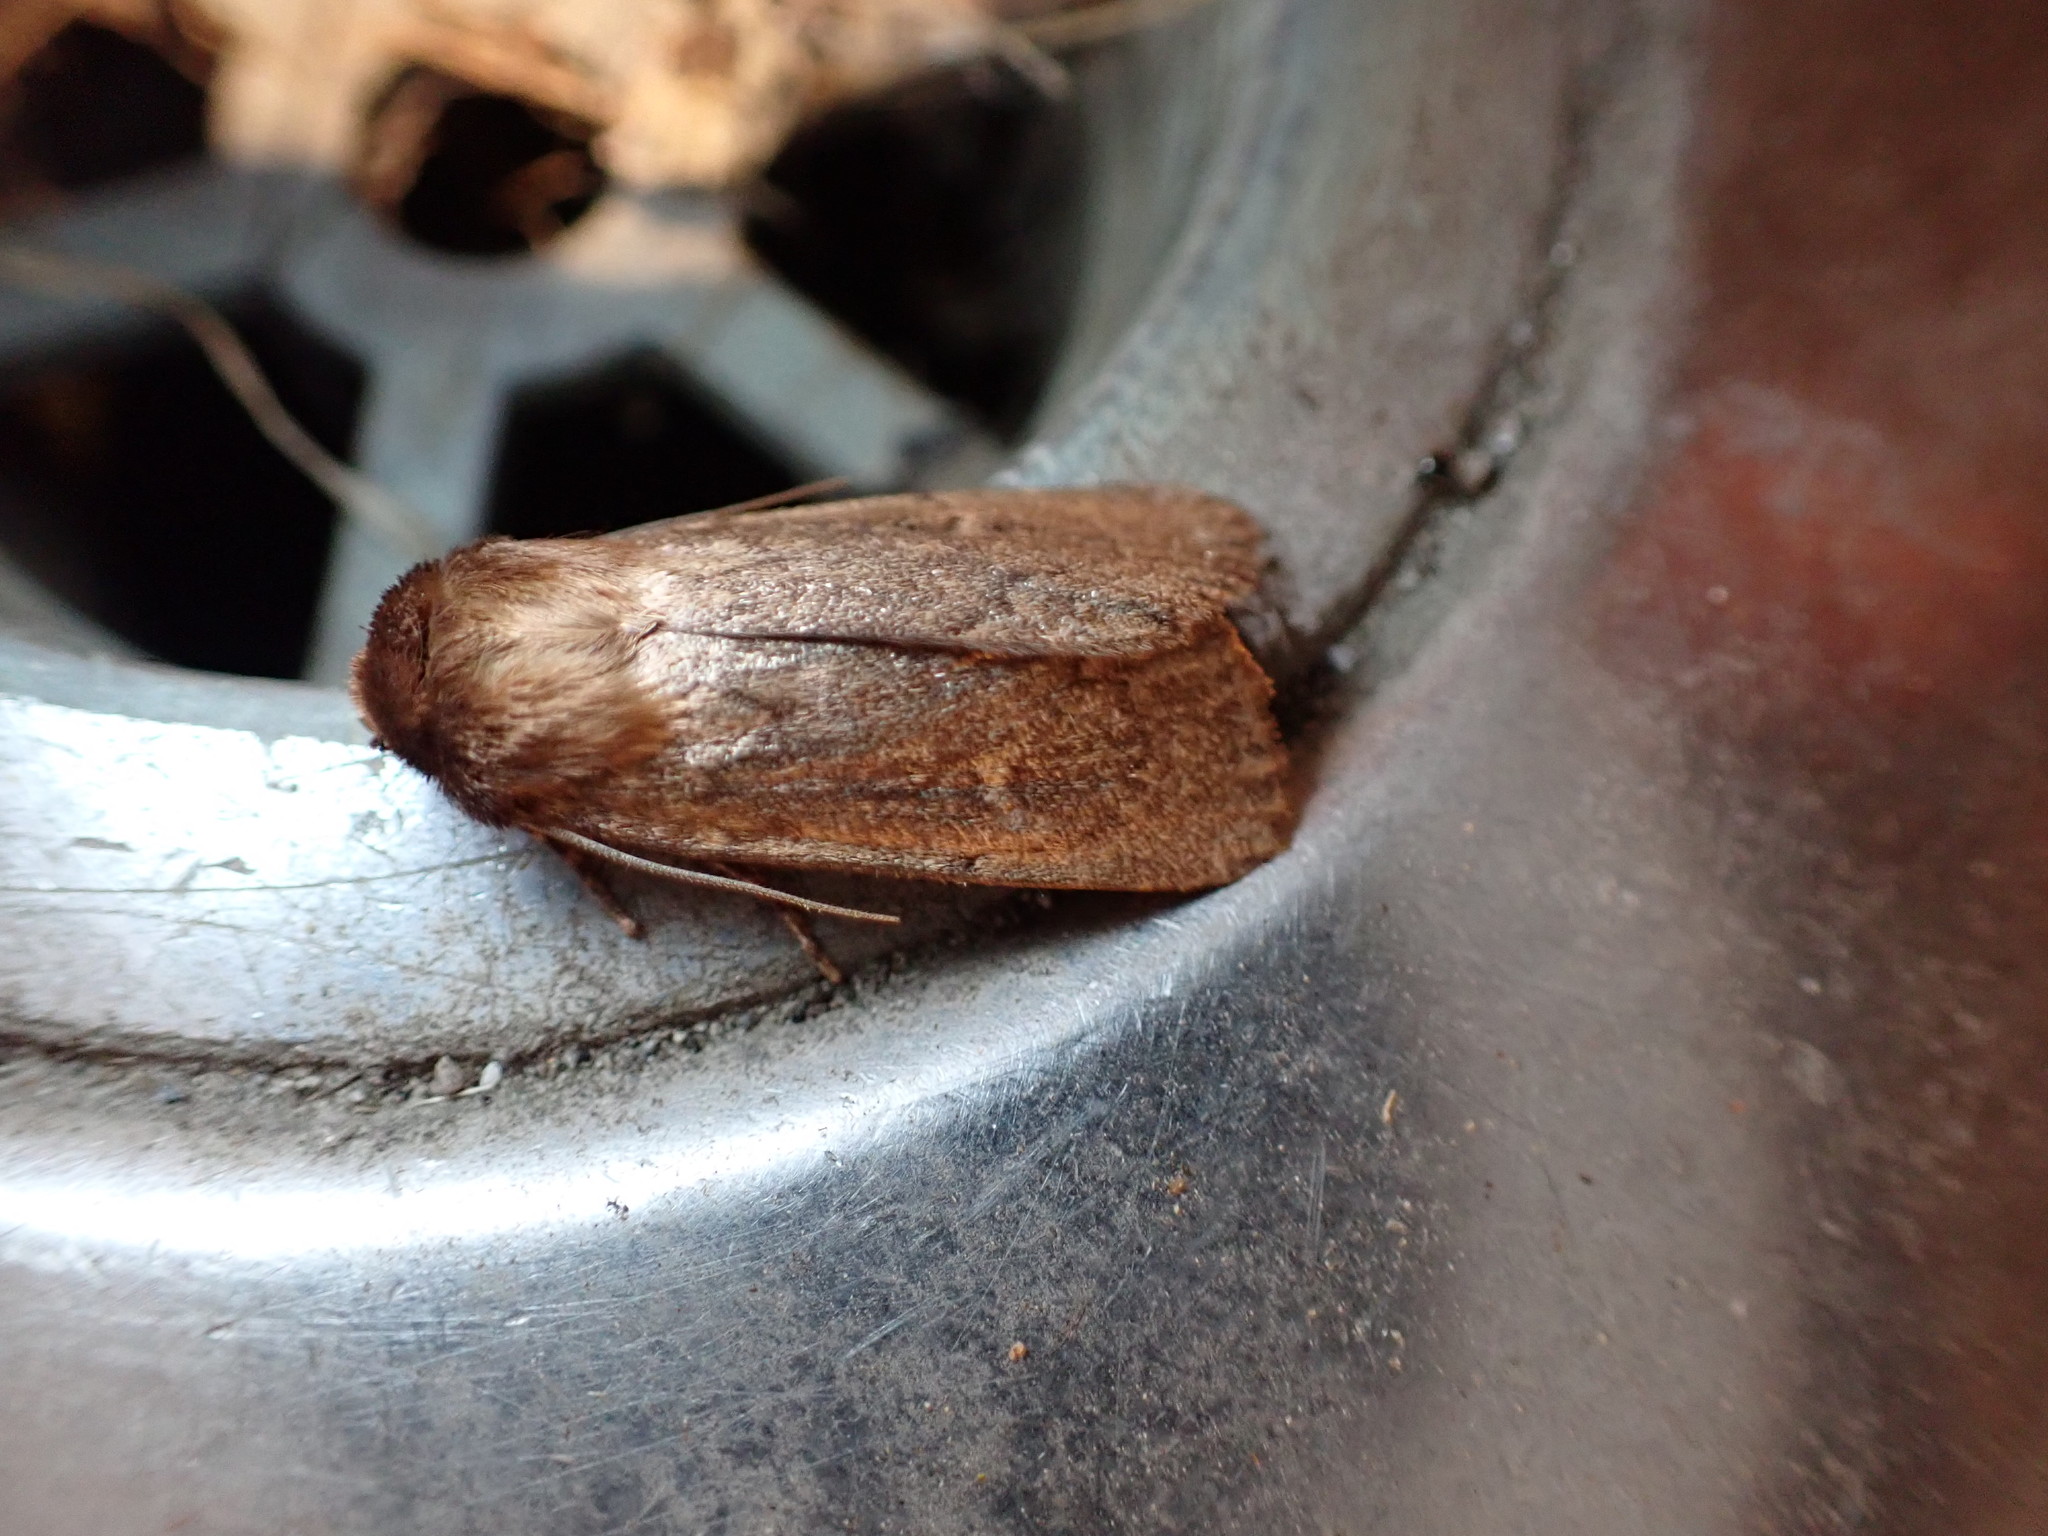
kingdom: Animalia
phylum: Arthropoda
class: Insecta
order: Lepidoptera
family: Noctuidae
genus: Bityla
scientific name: Bityla defigurata
